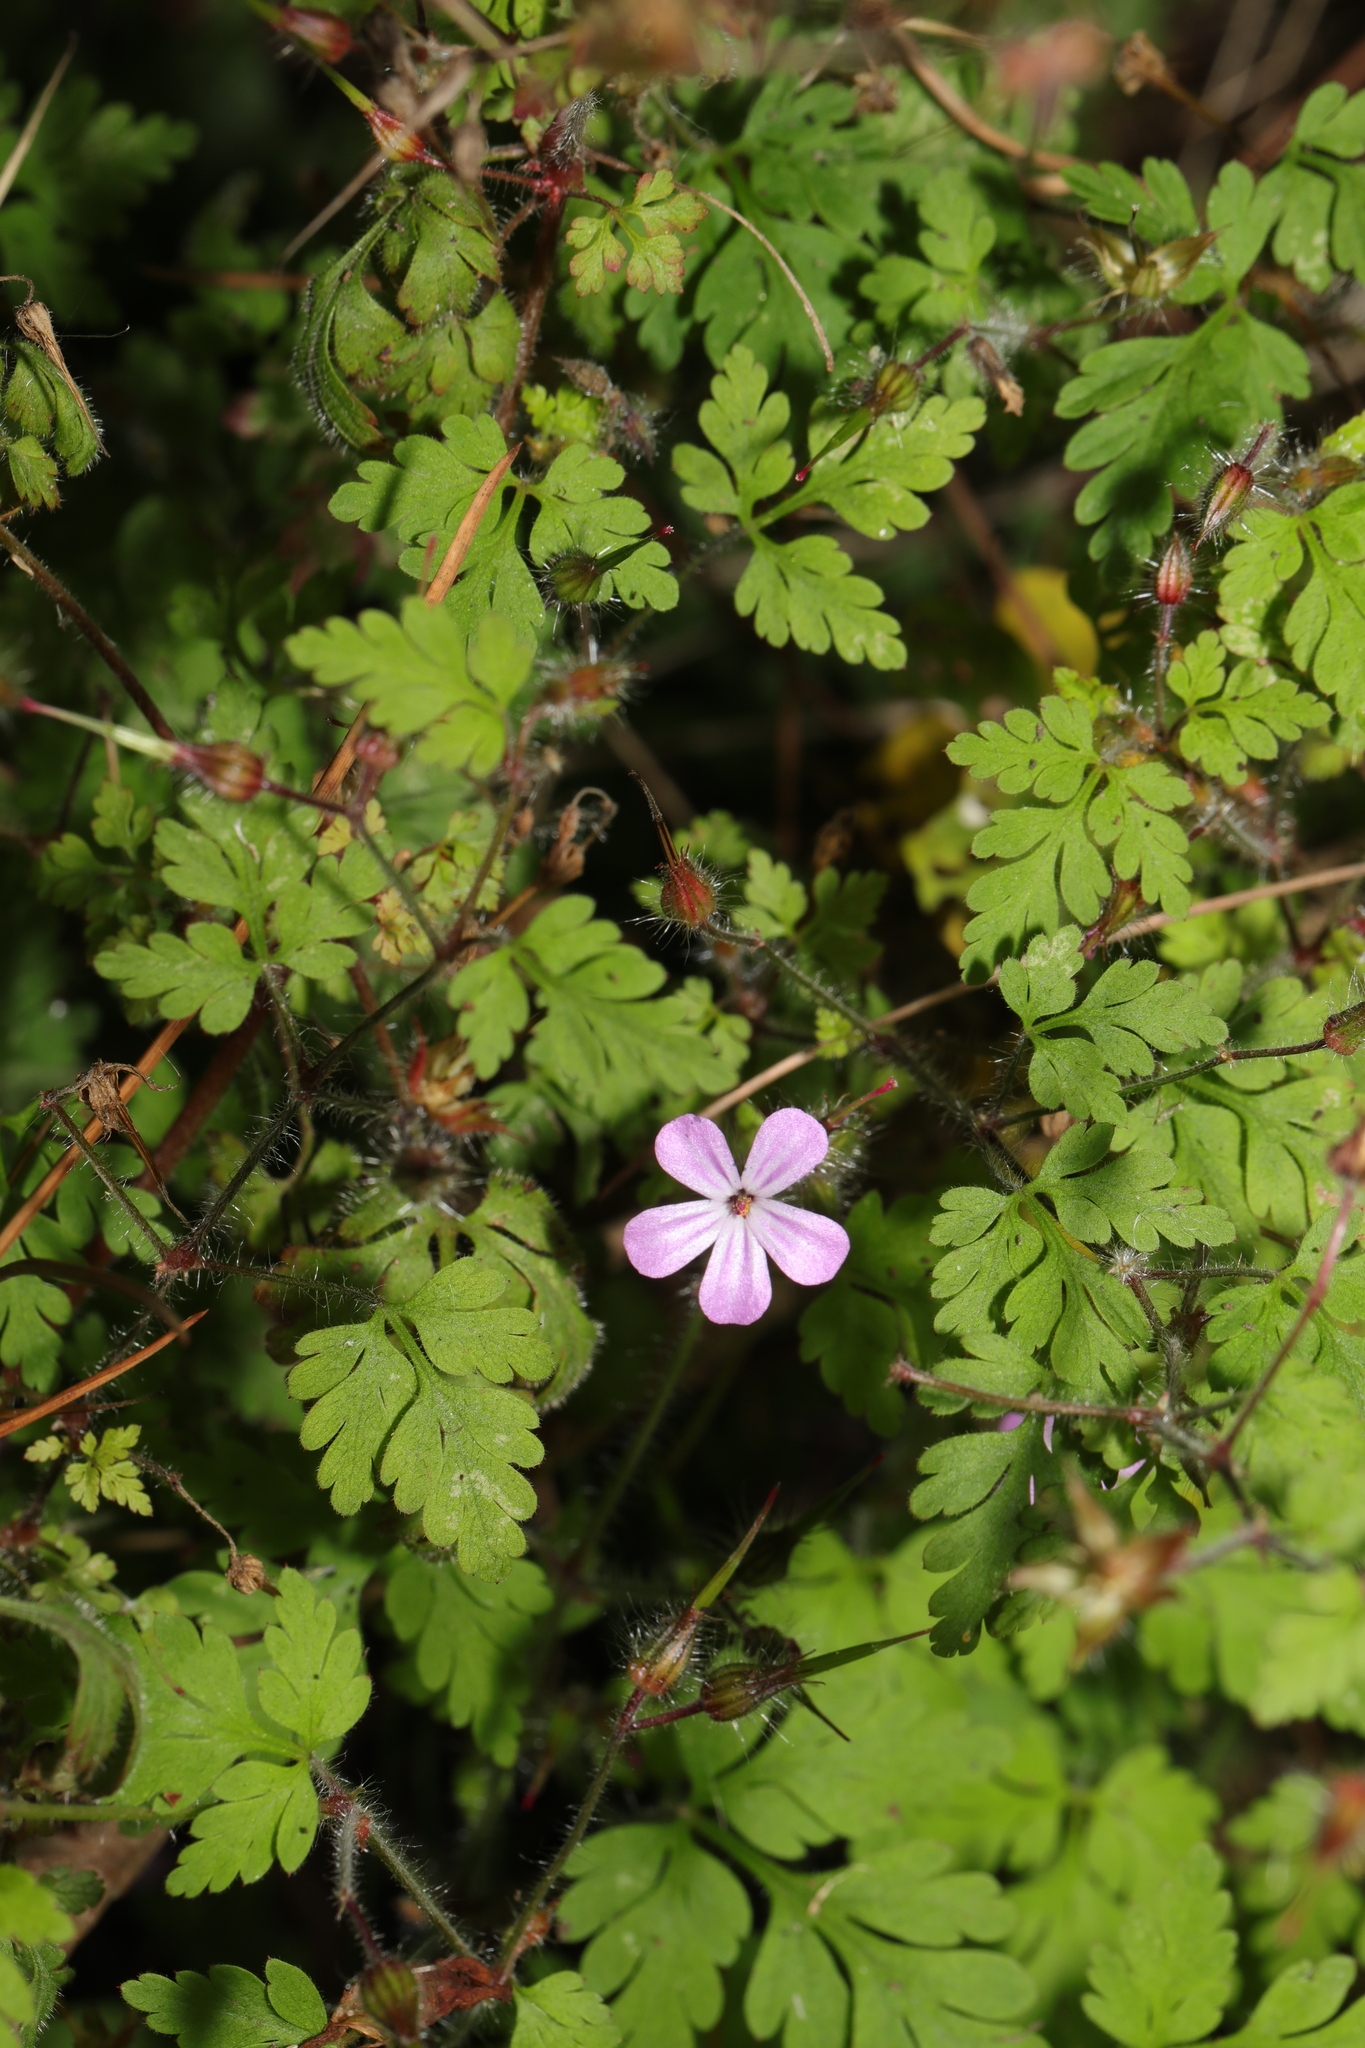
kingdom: Plantae
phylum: Tracheophyta
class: Magnoliopsida
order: Geraniales
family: Geraniaceae
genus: Geranium
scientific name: Geranium robertianum
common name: Herb-robert
